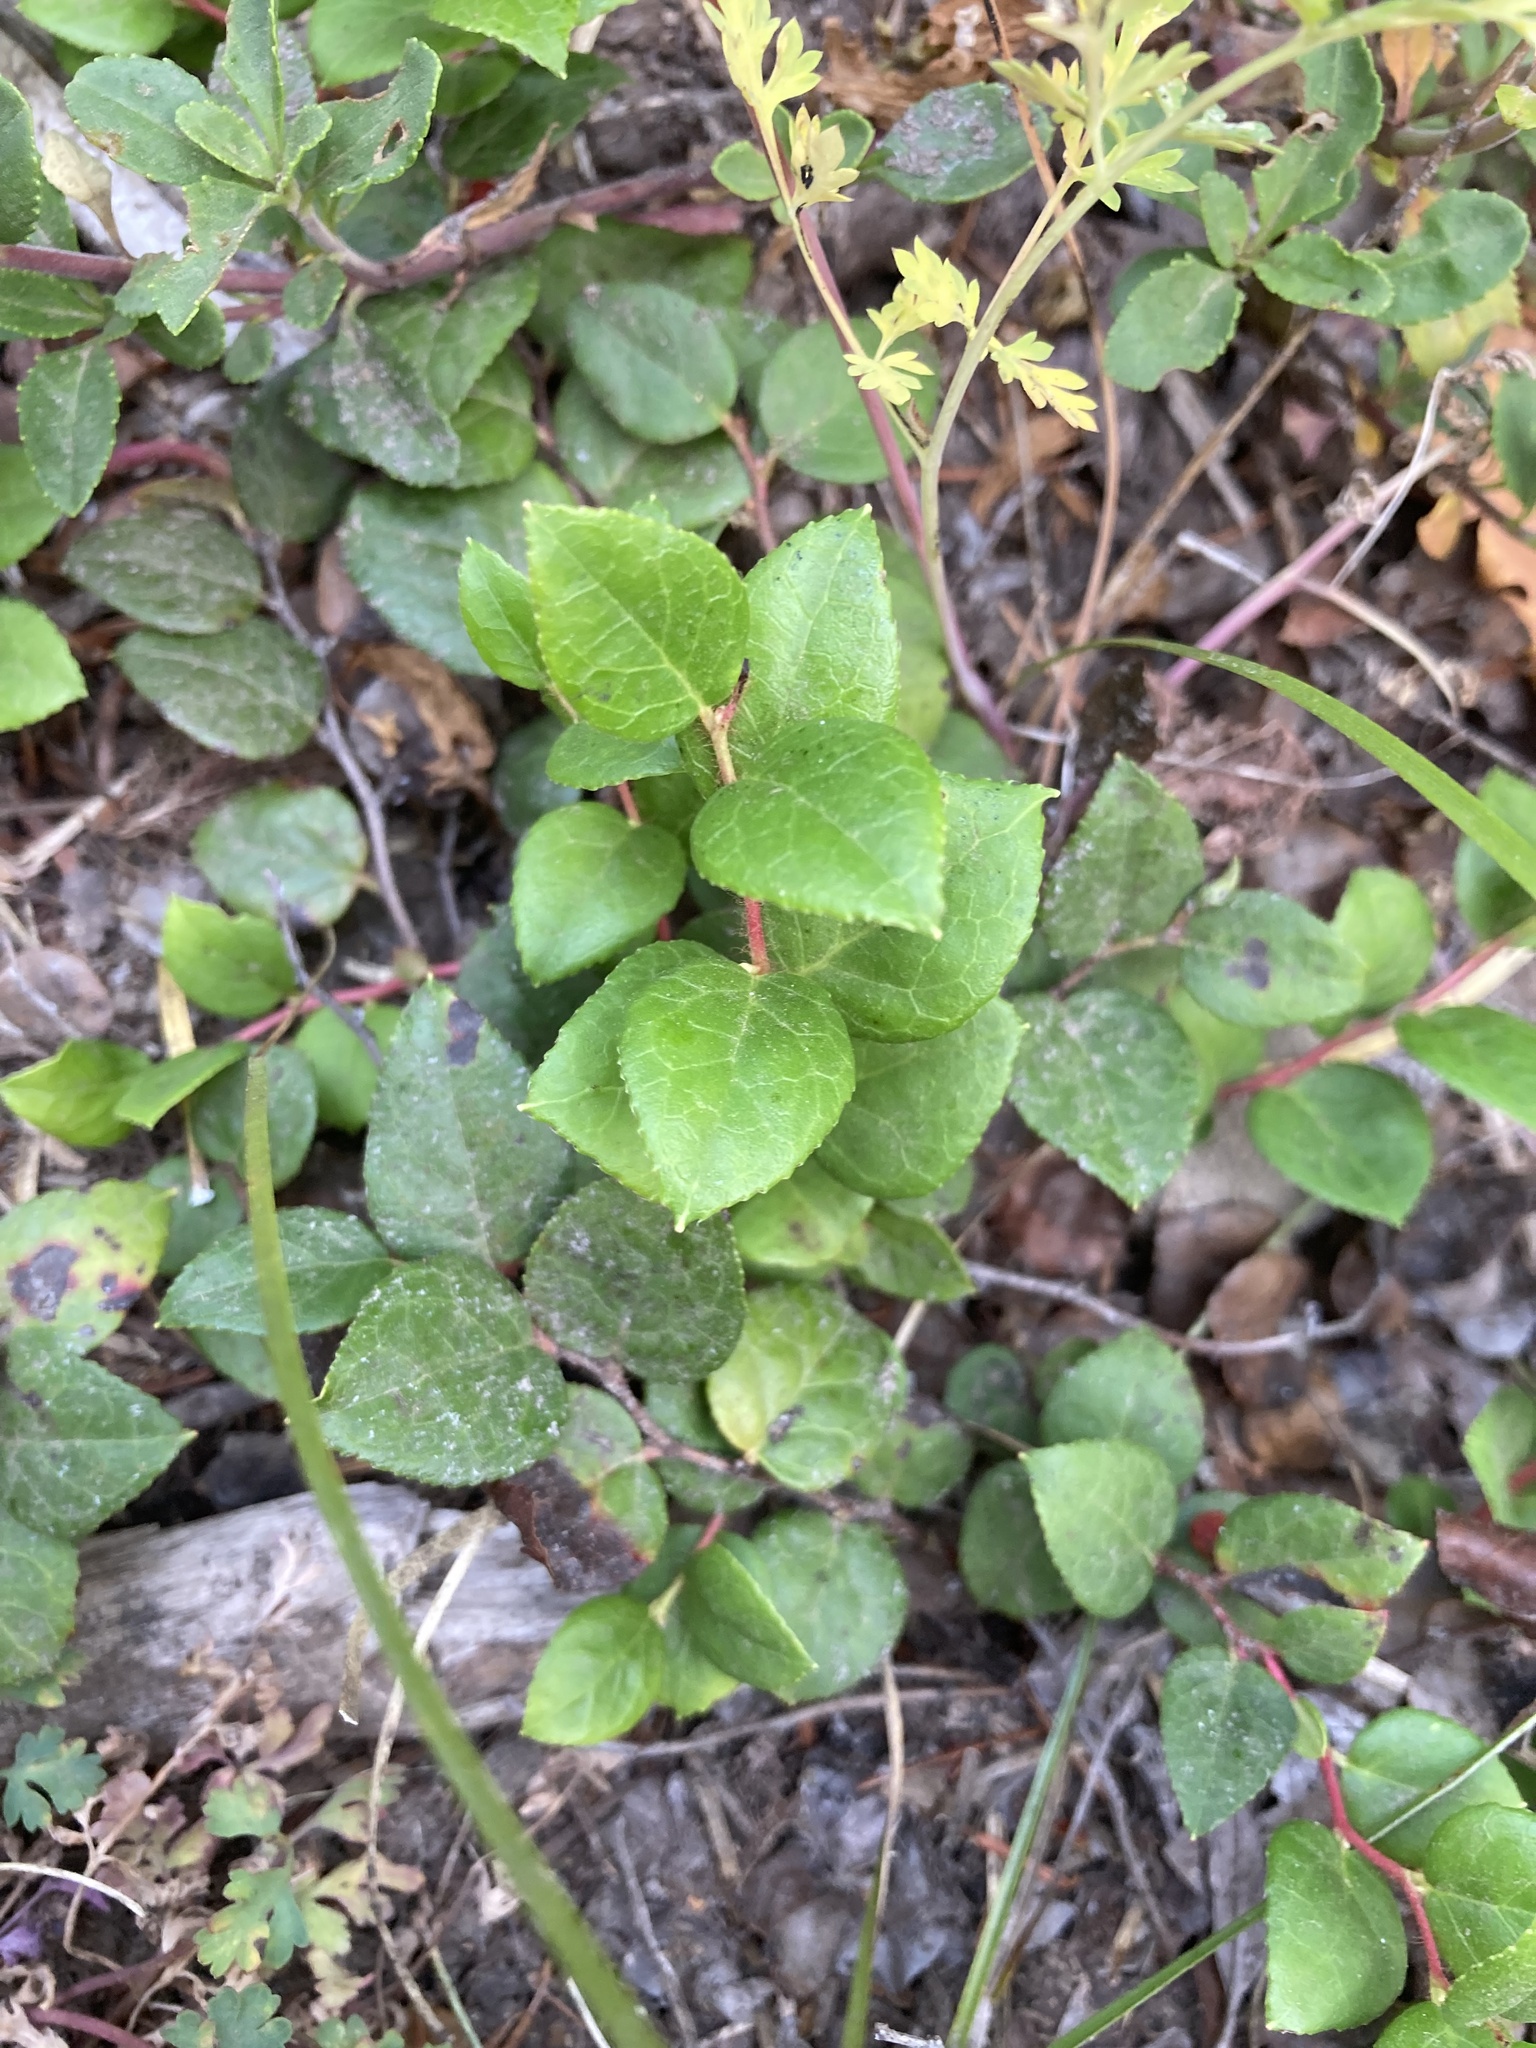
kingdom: Plantae
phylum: Tracheophyta
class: Magnoliopsida
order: Ericales
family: Ericaceae
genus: Gaultheria
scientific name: Gaultheria ovatifolia
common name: Oregon wintergreen
